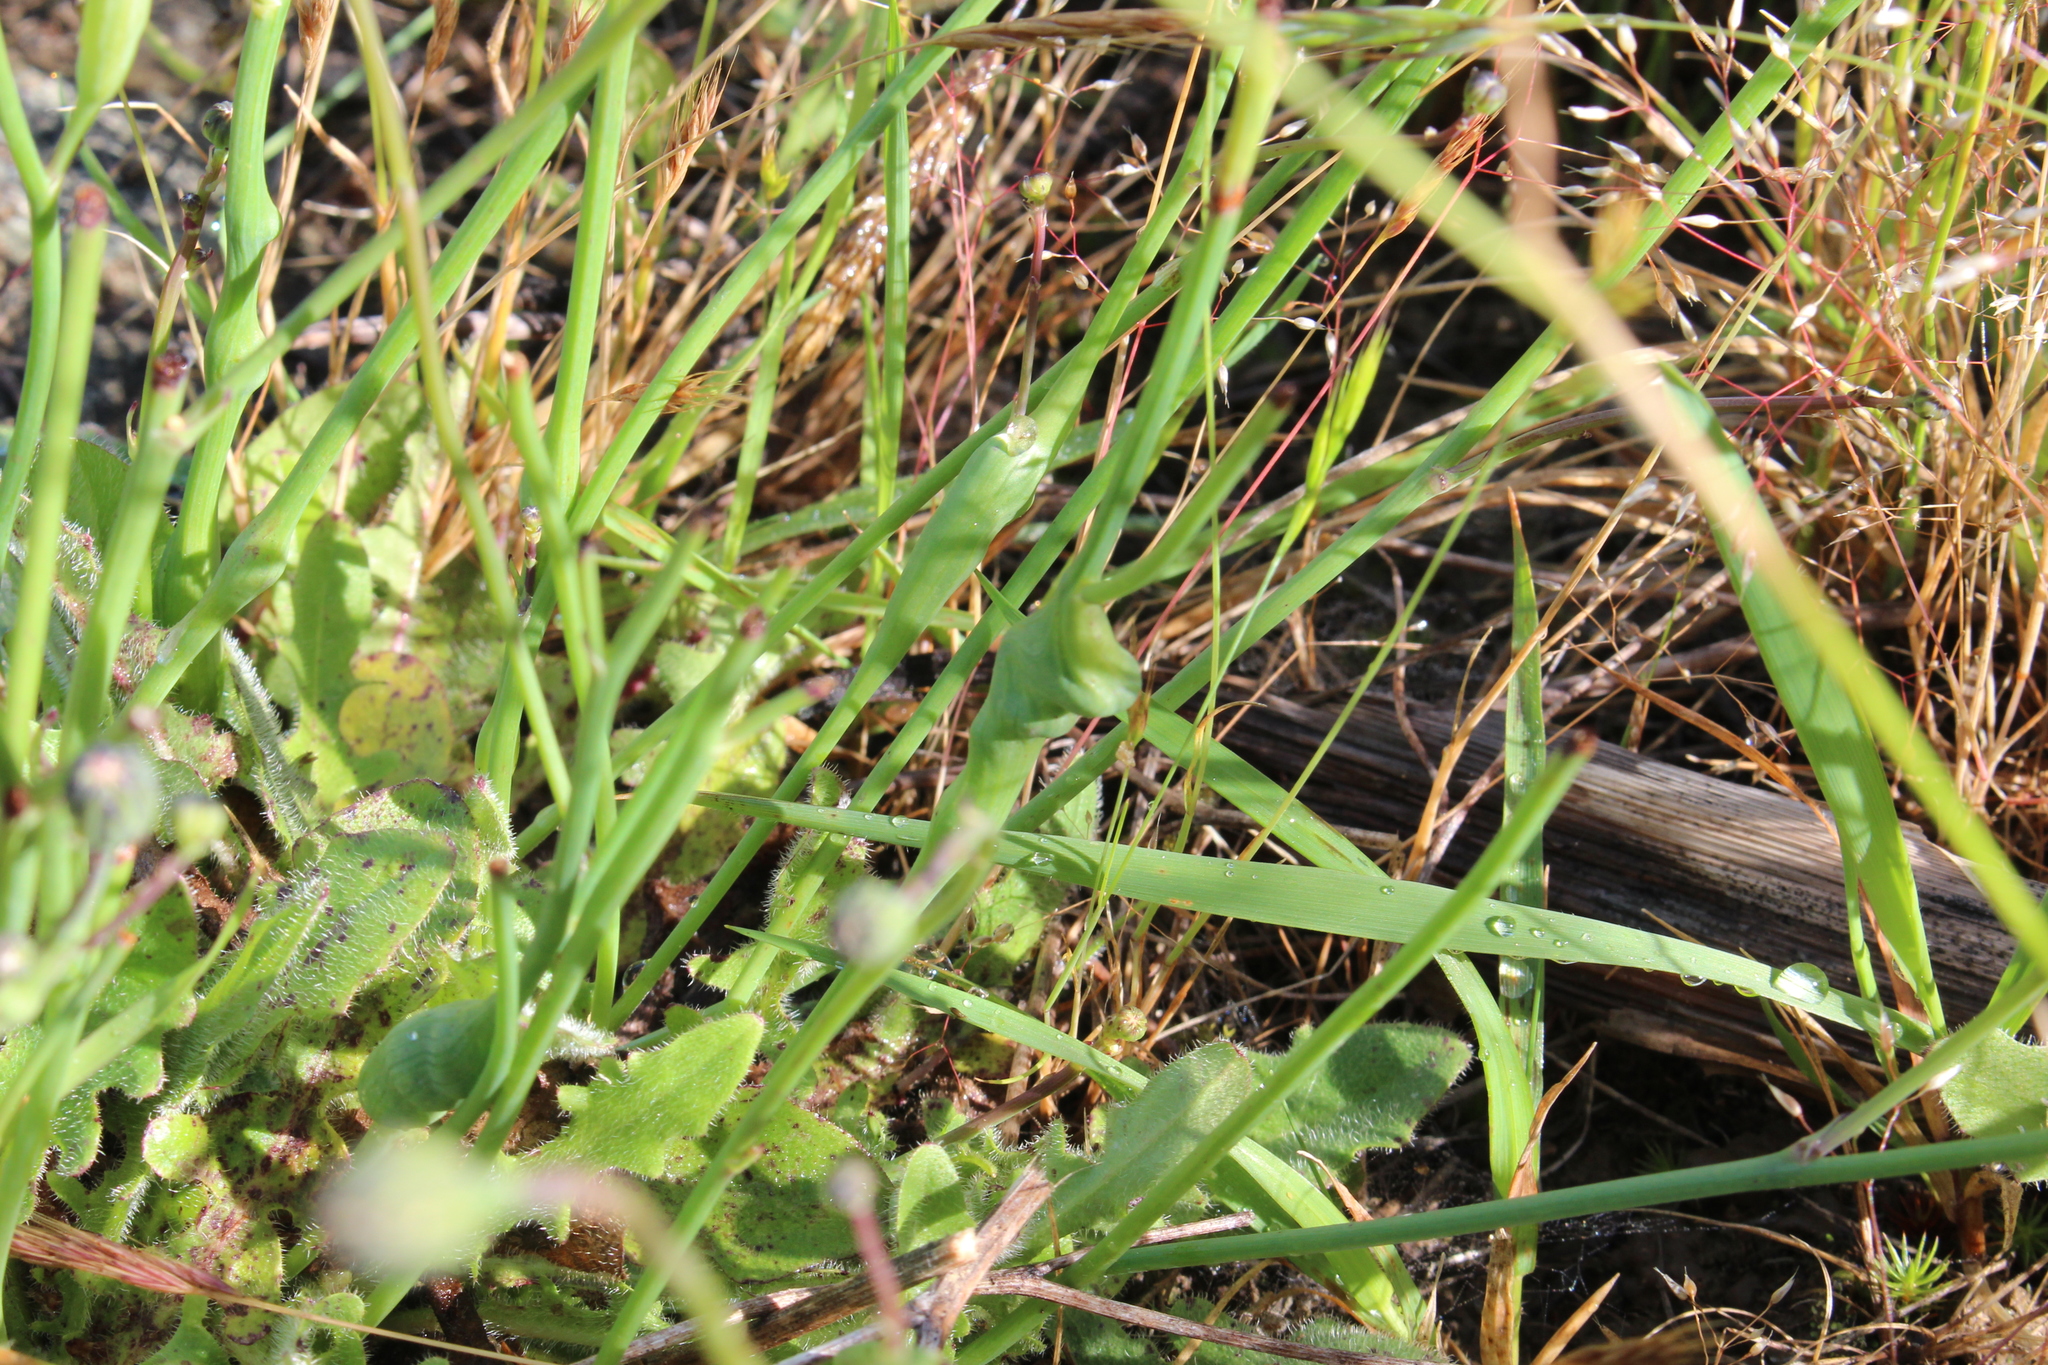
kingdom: Animalia
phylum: Arthropoda
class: Insecta
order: Hymenoptera
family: Cynipidae
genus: Phanacis
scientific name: Phanacis hypochoeridis
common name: Gall wasp
